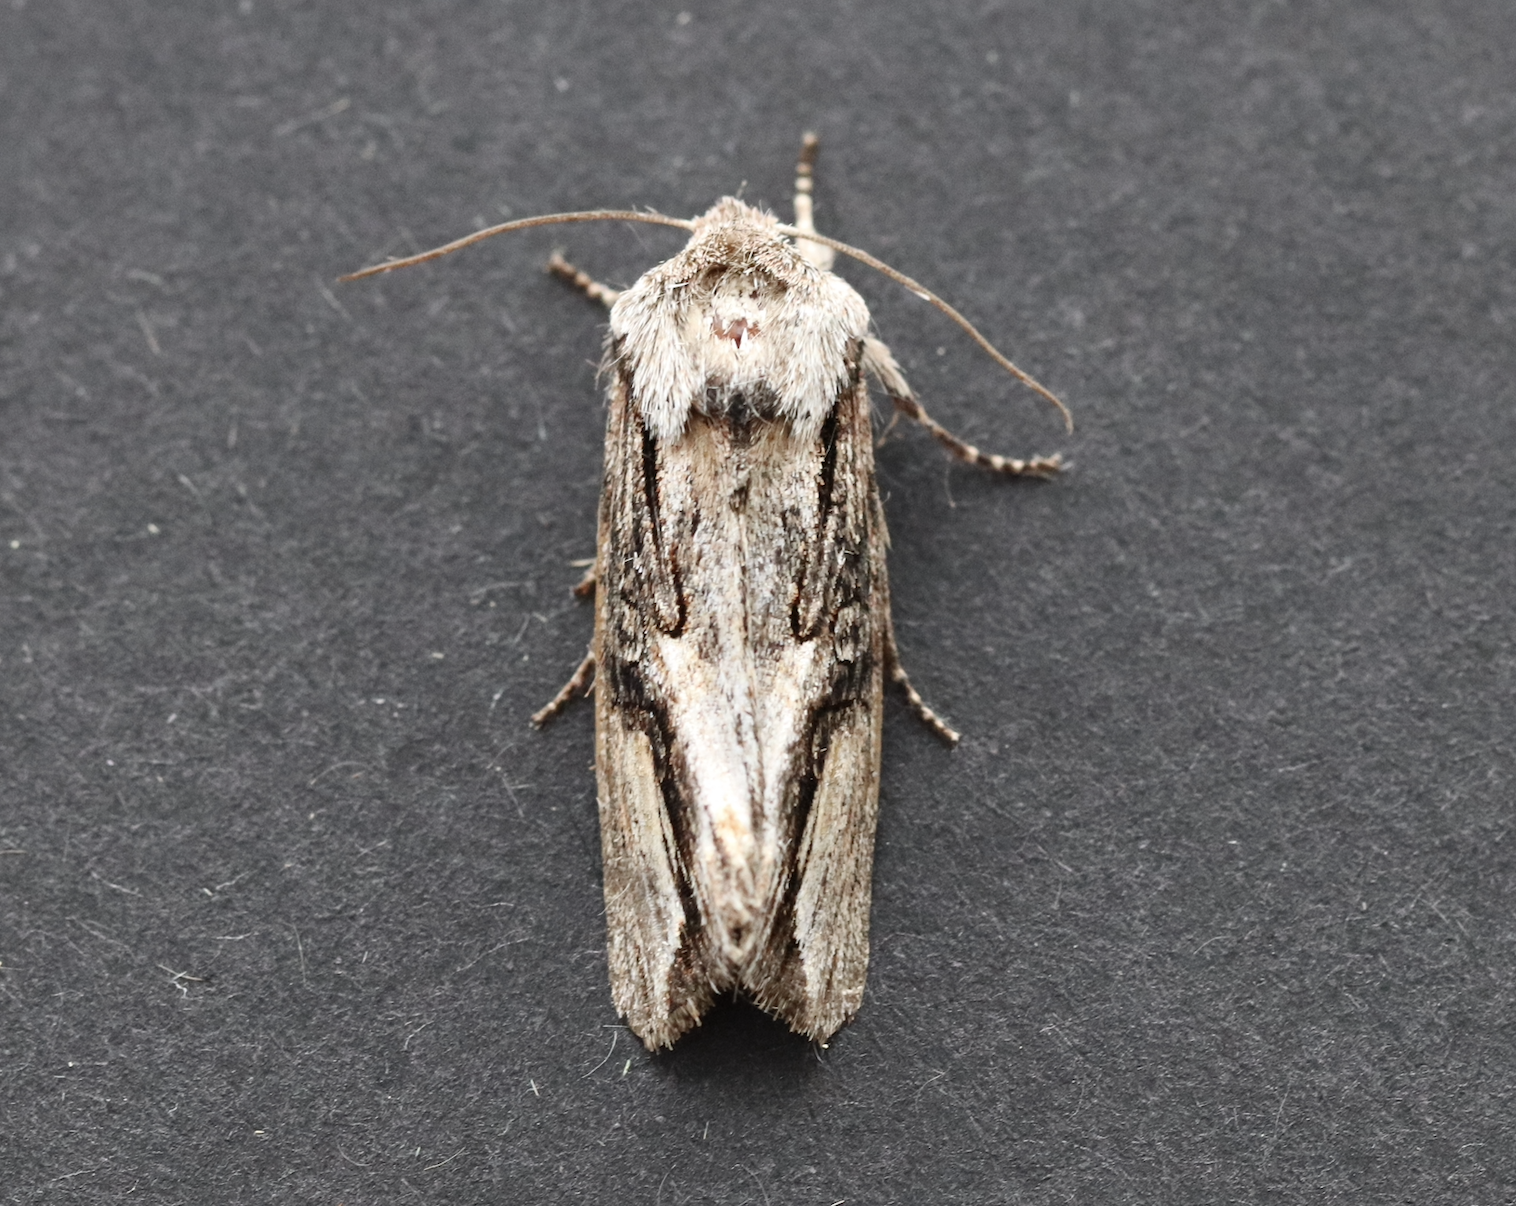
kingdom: Animalia
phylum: Arthropoda
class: Insecta
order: Lepidoptera
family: Noctuidae
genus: Egira
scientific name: Egira conspicillaris
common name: Silver cloud
